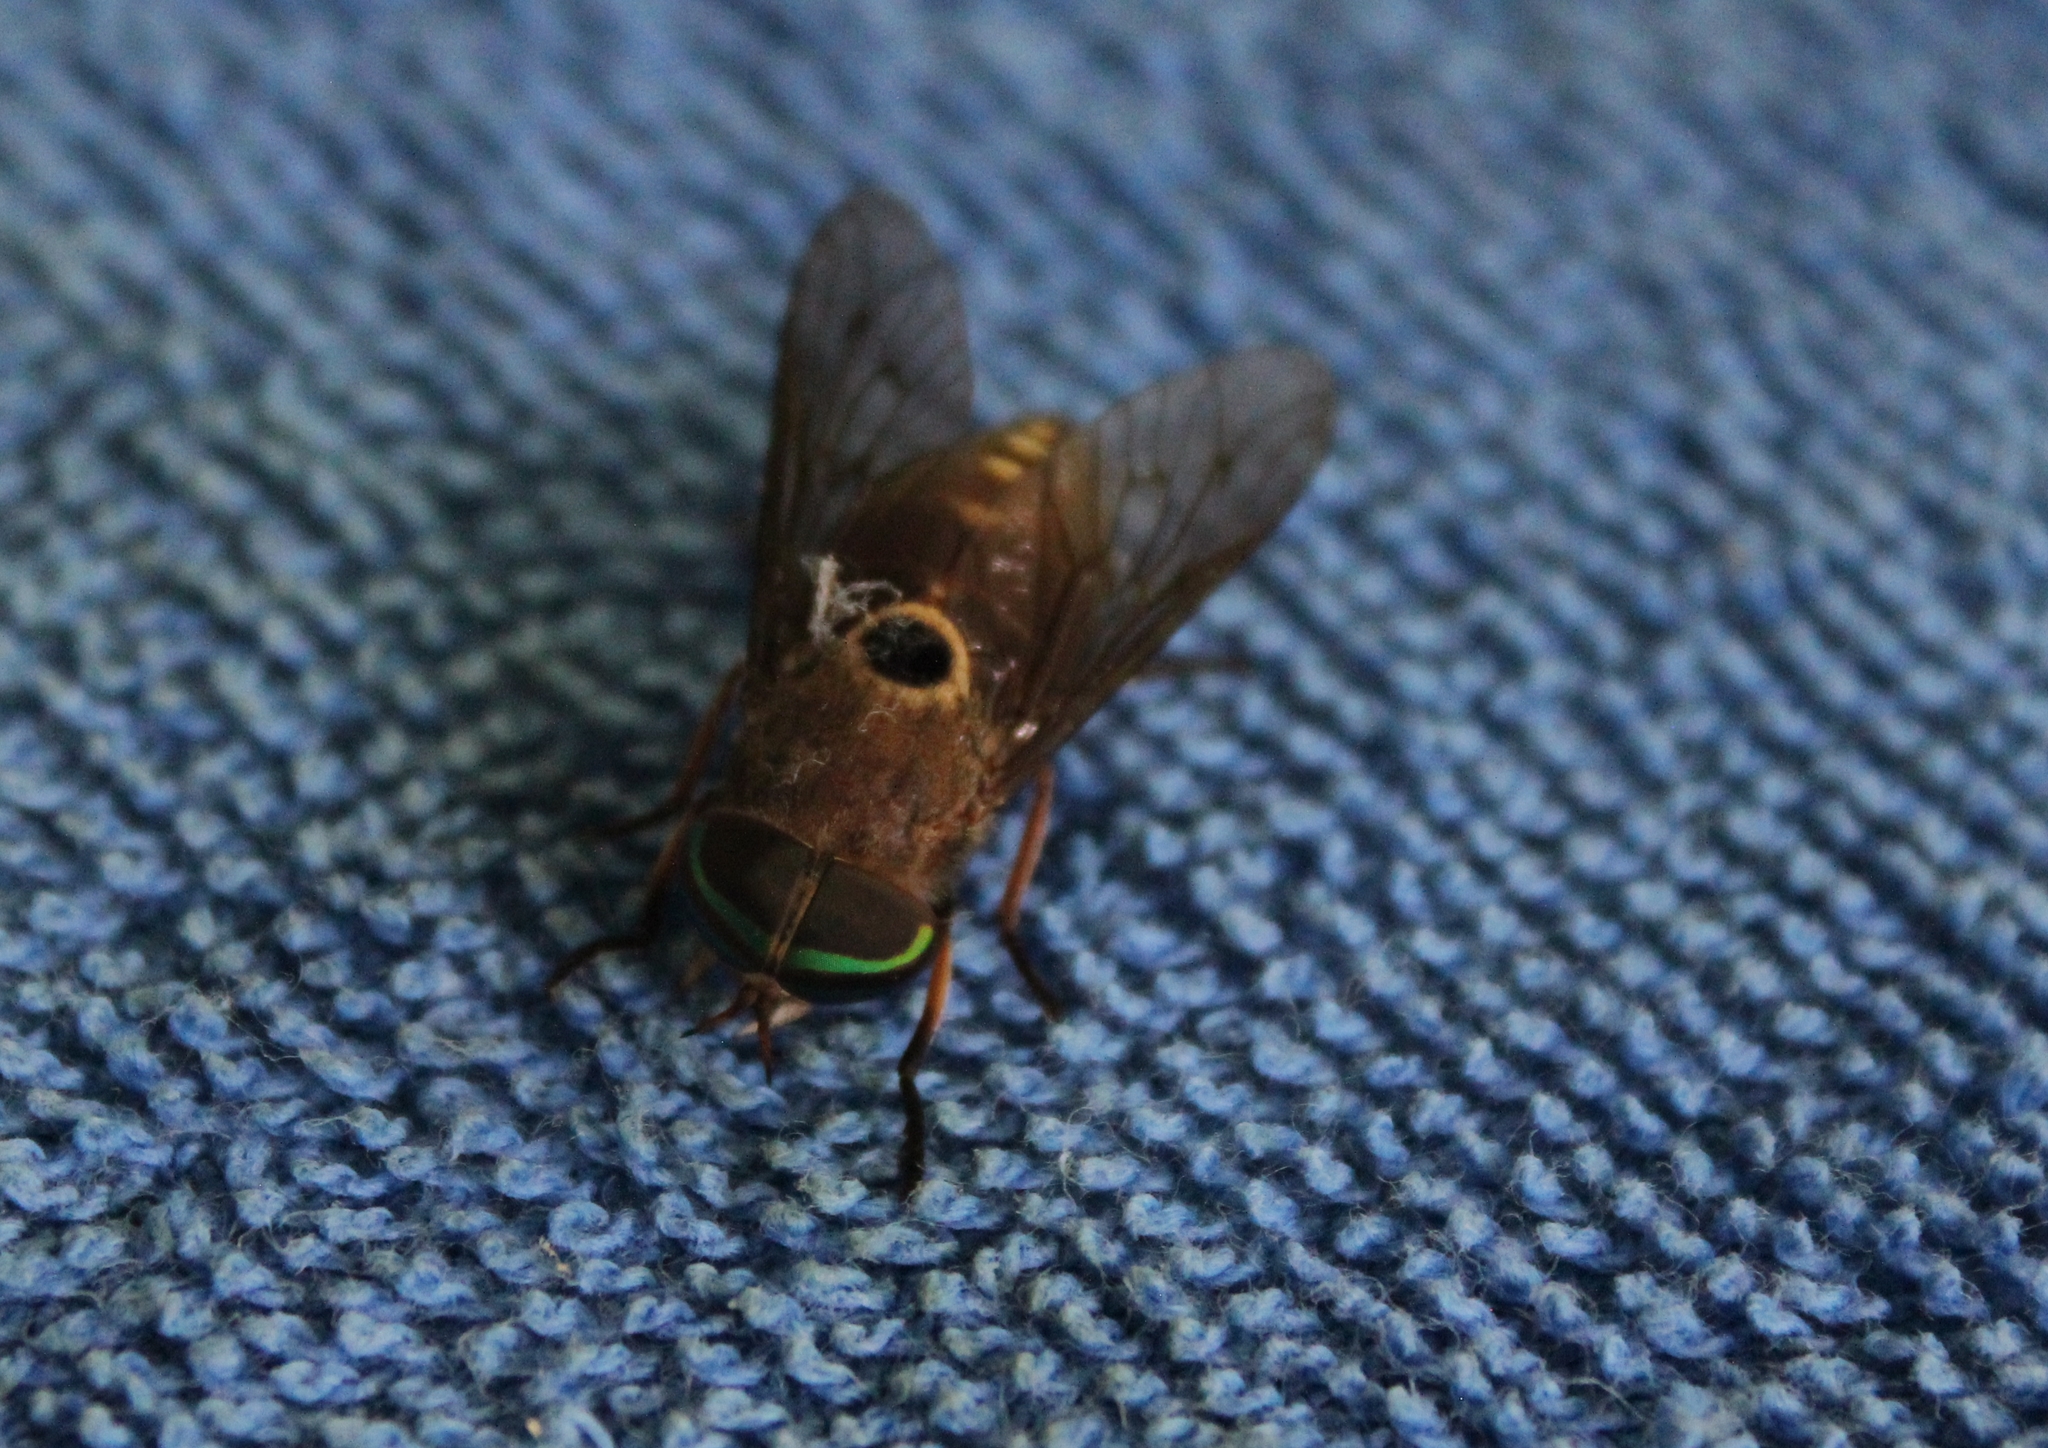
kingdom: Animalia
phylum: Arthropoda
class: Insecta
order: Diptera
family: Tabanidae
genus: Tabanus
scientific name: Tabanus albocirculus
